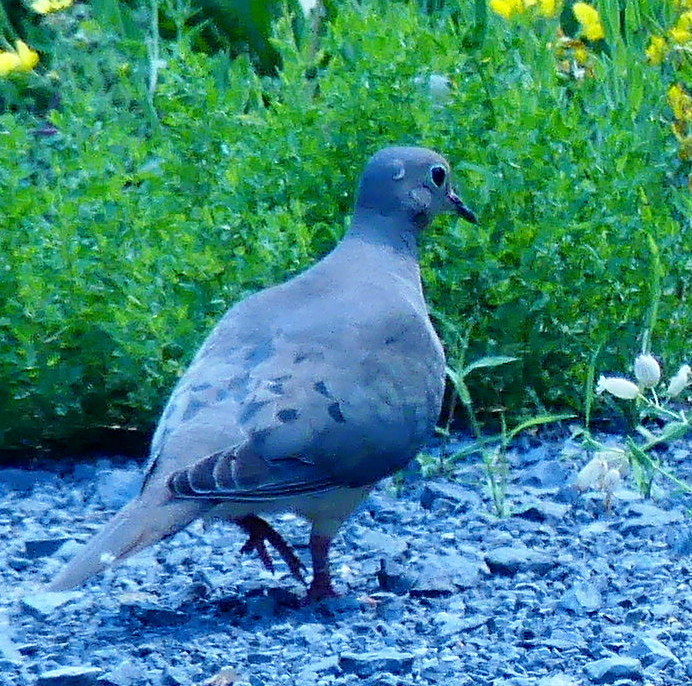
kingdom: Animalia
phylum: Chordata
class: Aves
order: Columbiformes
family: Columbidae
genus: Zenaida
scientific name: Zenaida macroura
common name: Mourning dove
